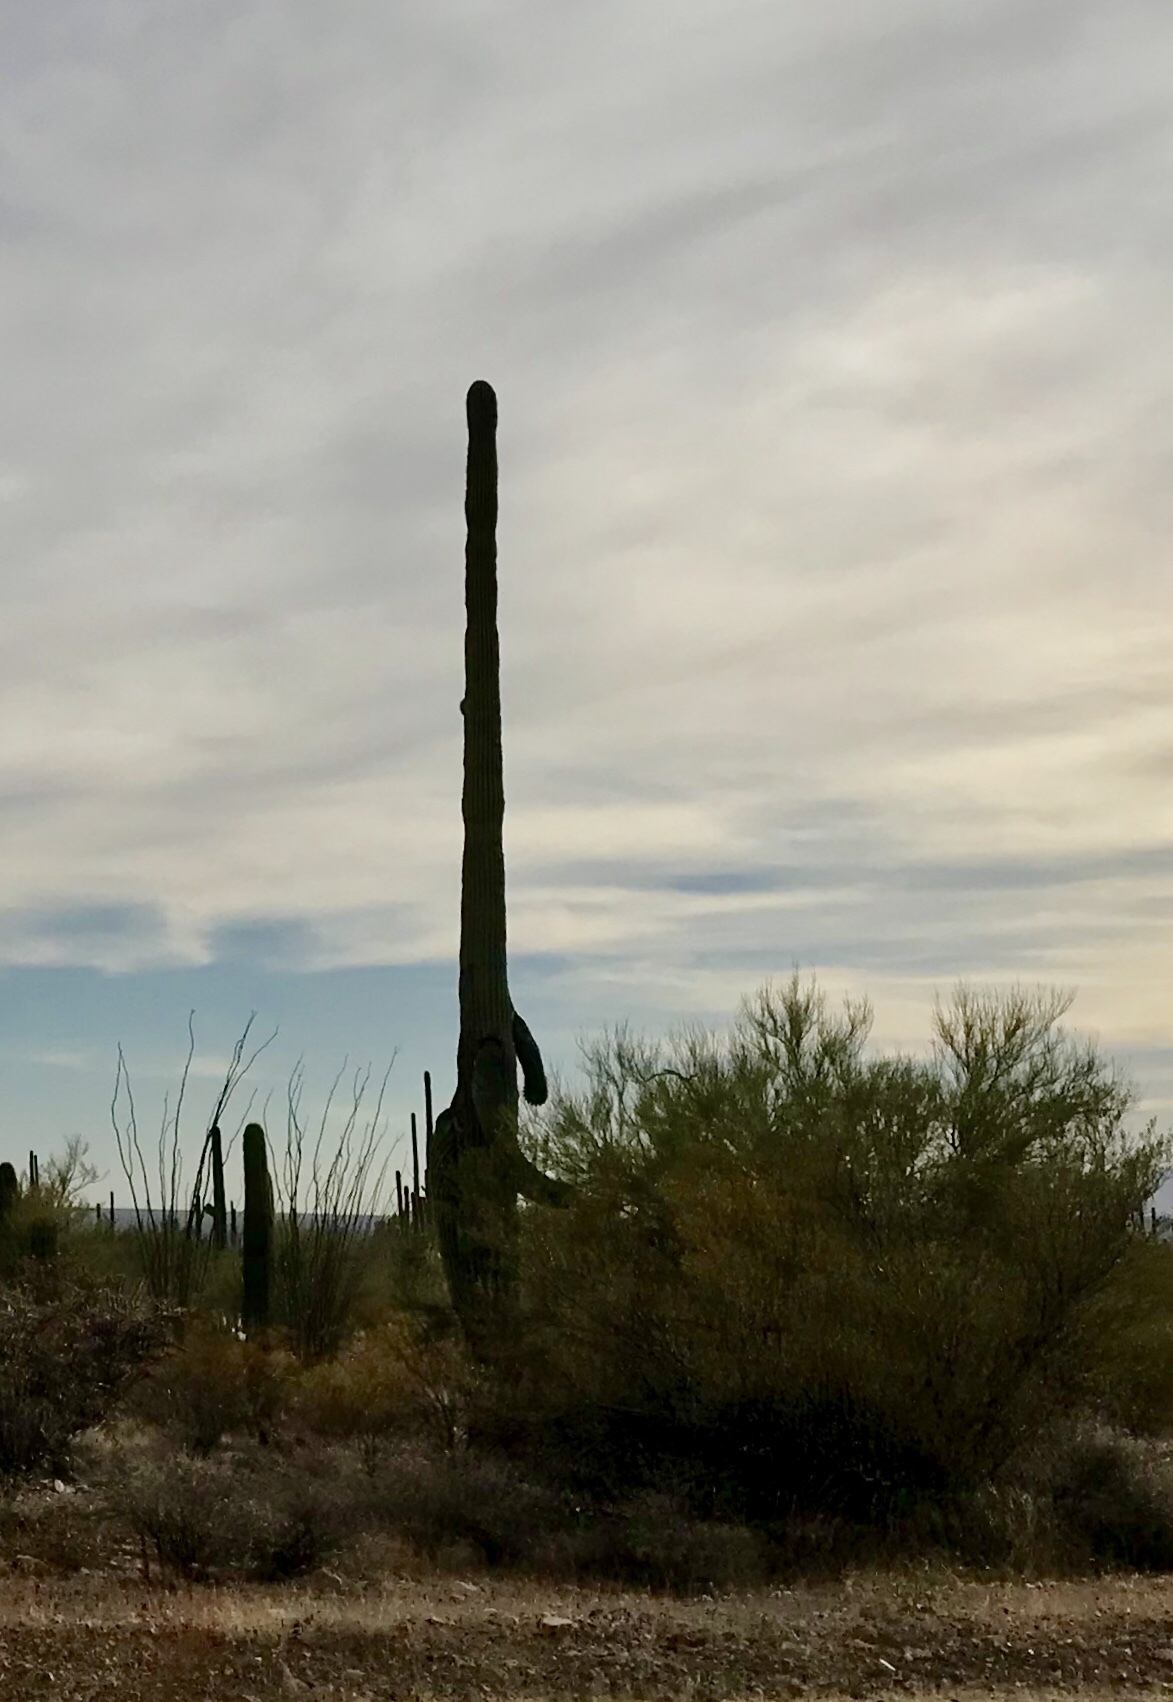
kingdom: Plantae
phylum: Tracheophyta
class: Magnoliopsida
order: Caryophyllales
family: Cactaceae
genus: Carnegiea
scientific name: Carnegiea gigantea
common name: Saguaro
